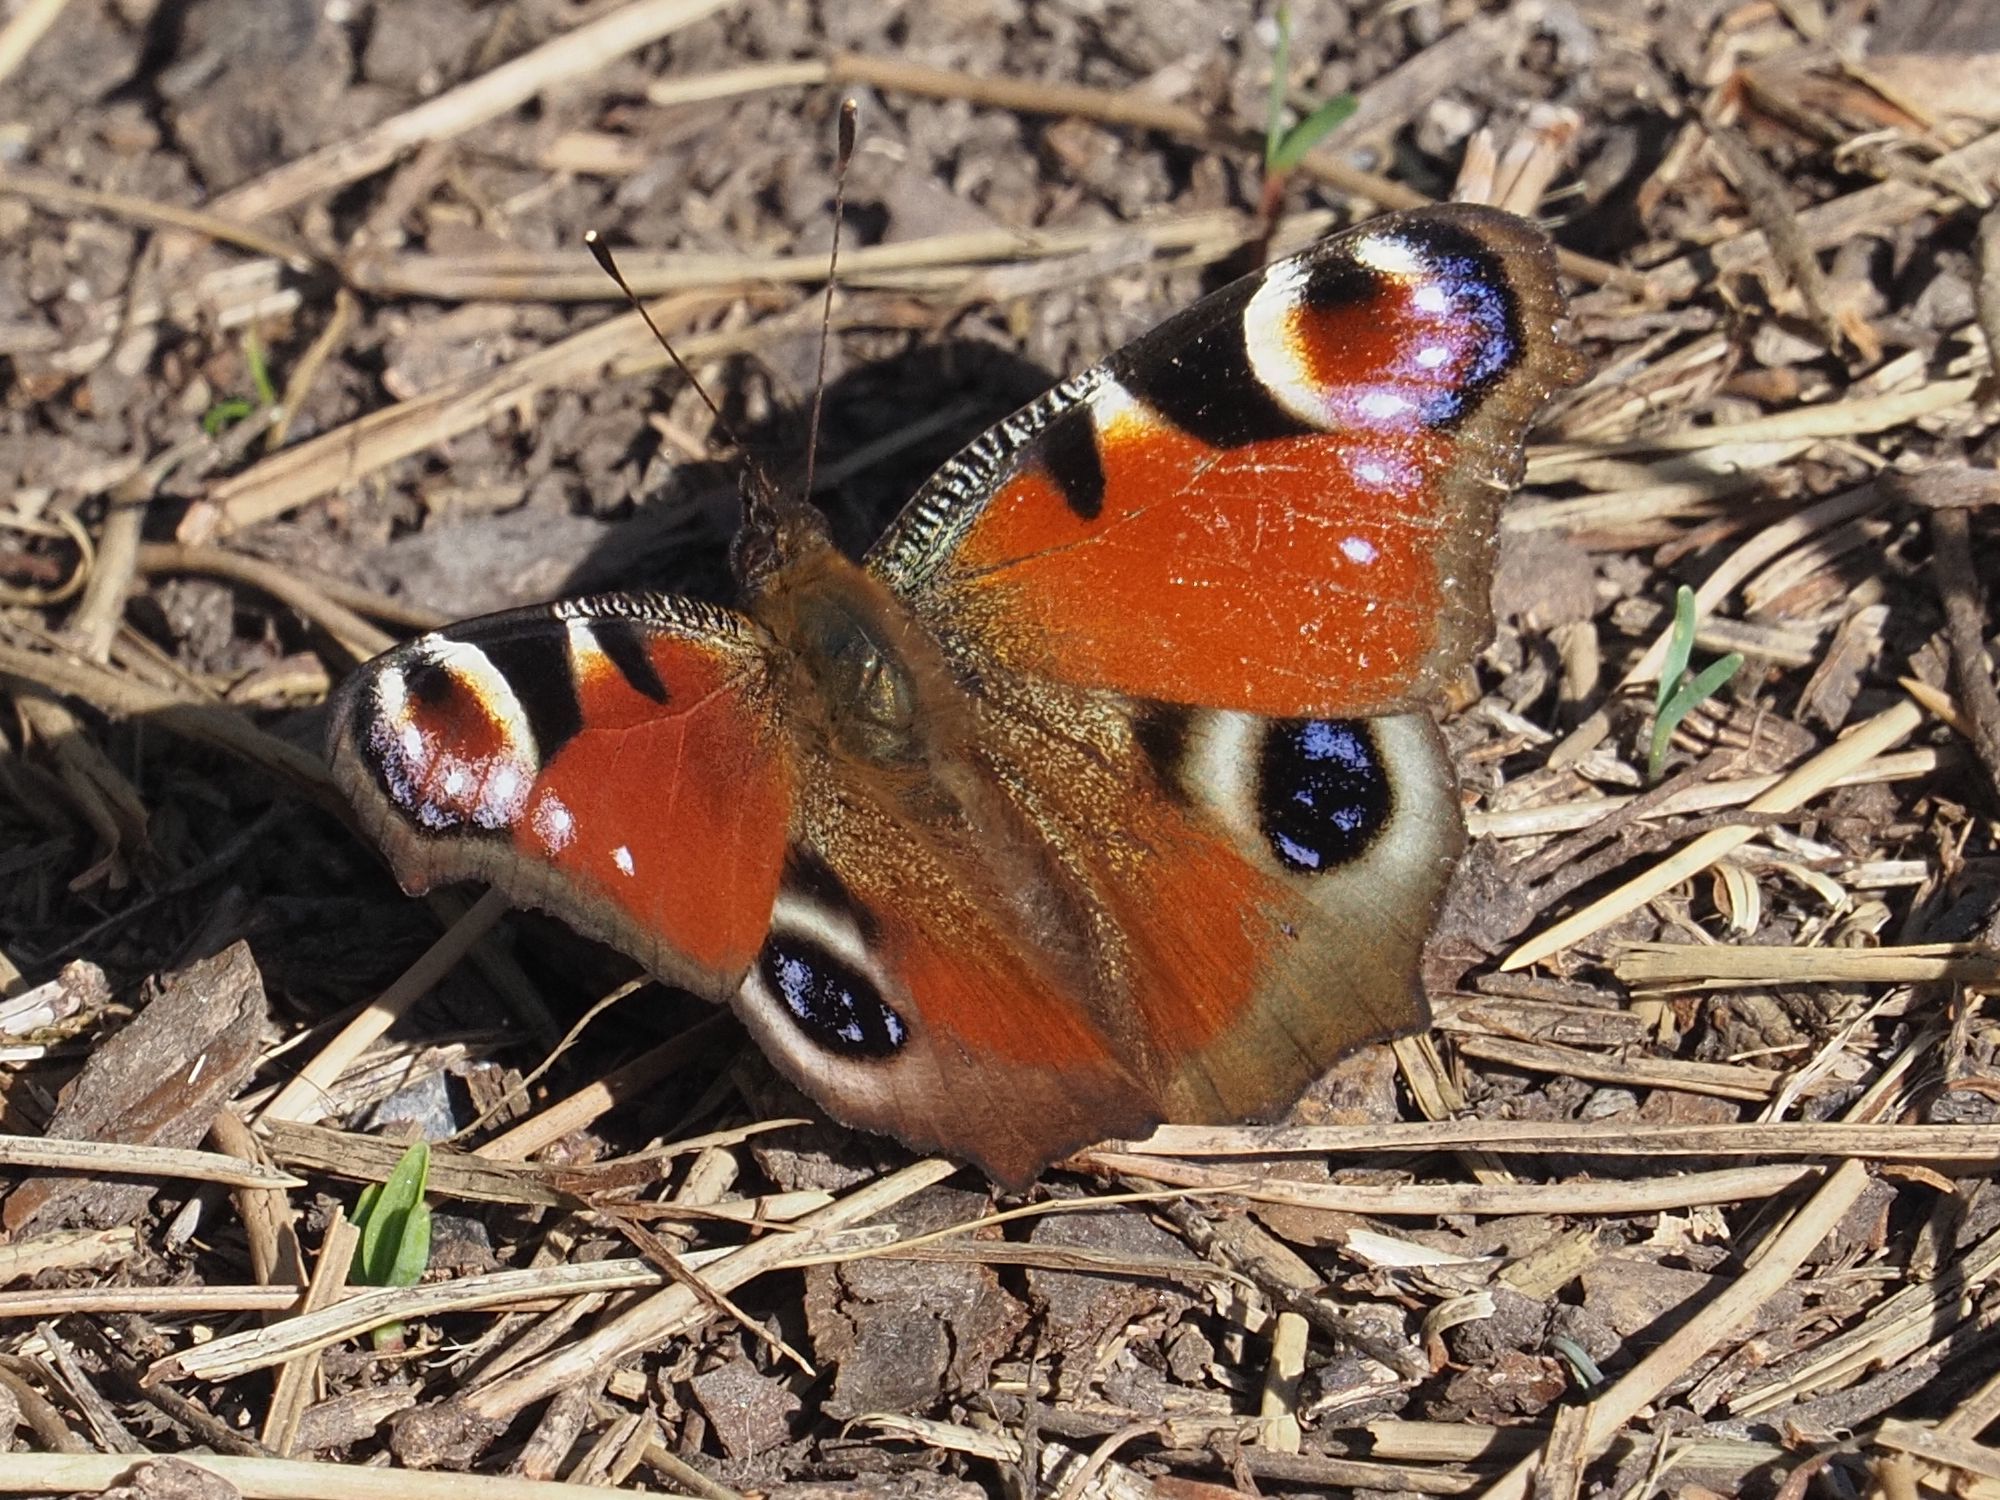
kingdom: Animalia
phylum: Arthropoda
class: Insecta
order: Lepidoptera
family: Nymphalidae
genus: Aglais
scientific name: Aglais io
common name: Peacock
